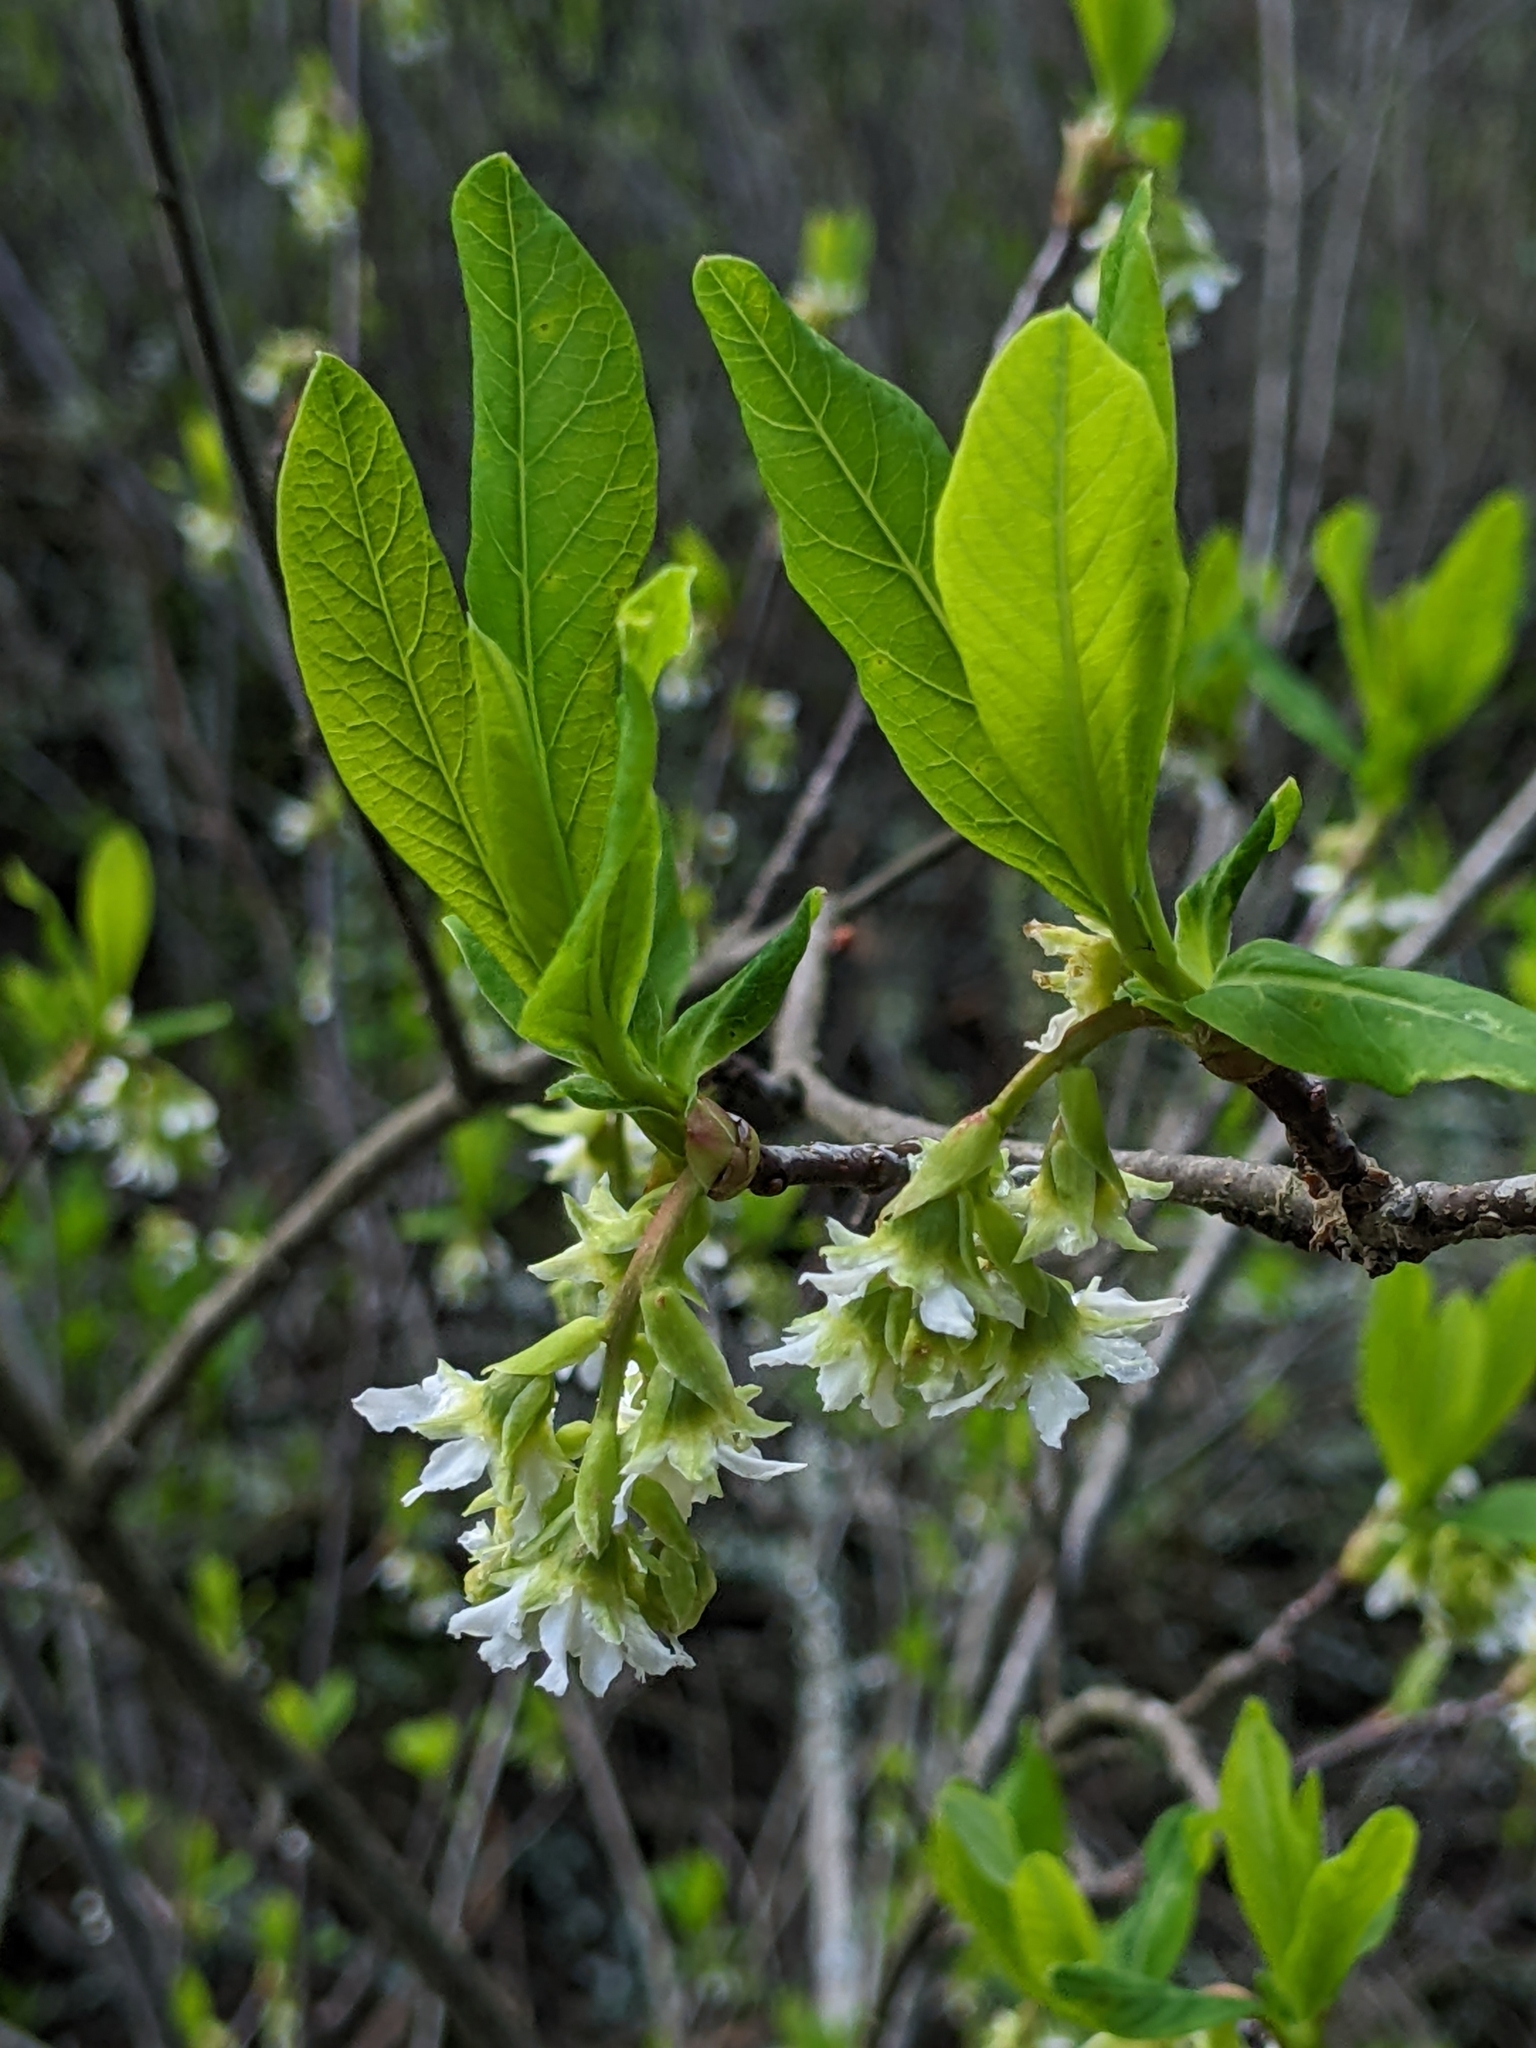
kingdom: Plantae
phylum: Tracheophyta
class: Magnoliopsida
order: Rosales
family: Rosaceae
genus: Oemleria
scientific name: Oemleria cerasiformis
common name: Osoberry
